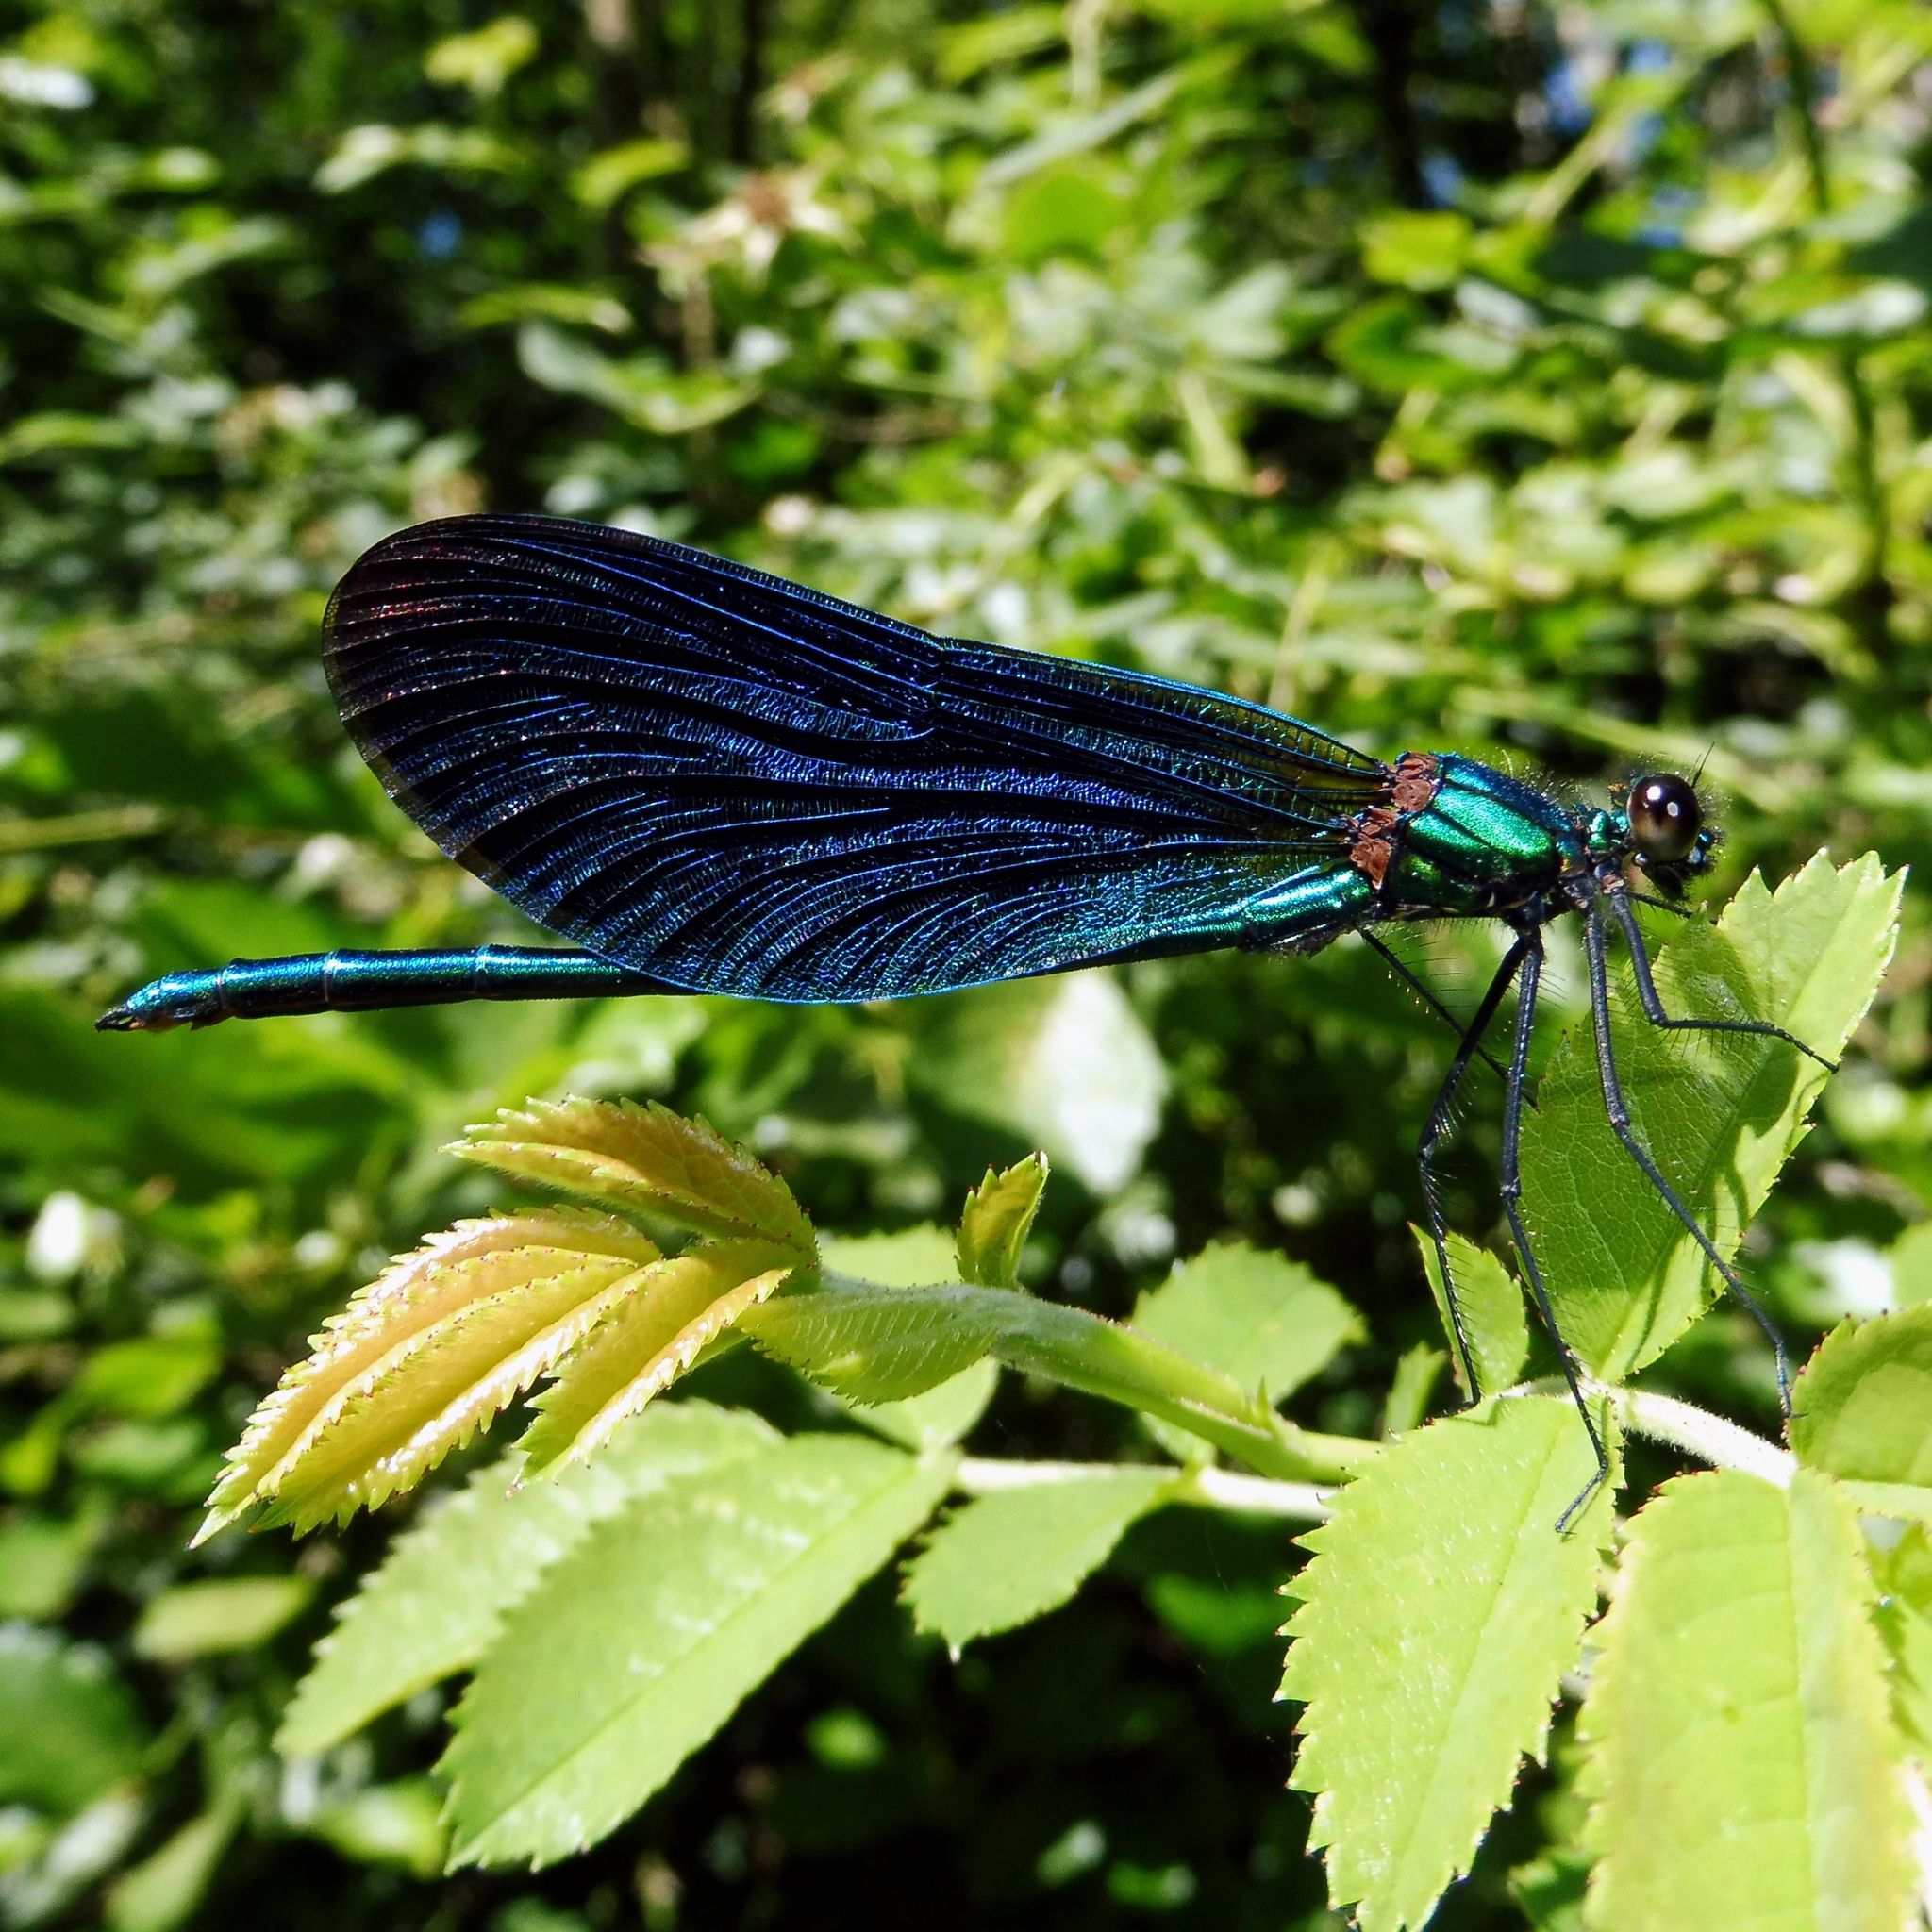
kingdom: Animalia
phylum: Arthropoda
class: Insecta
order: Odonata
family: Calopterygidae
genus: Calopteryx
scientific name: Calopteryx virgo
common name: Beautiful demoiselle
